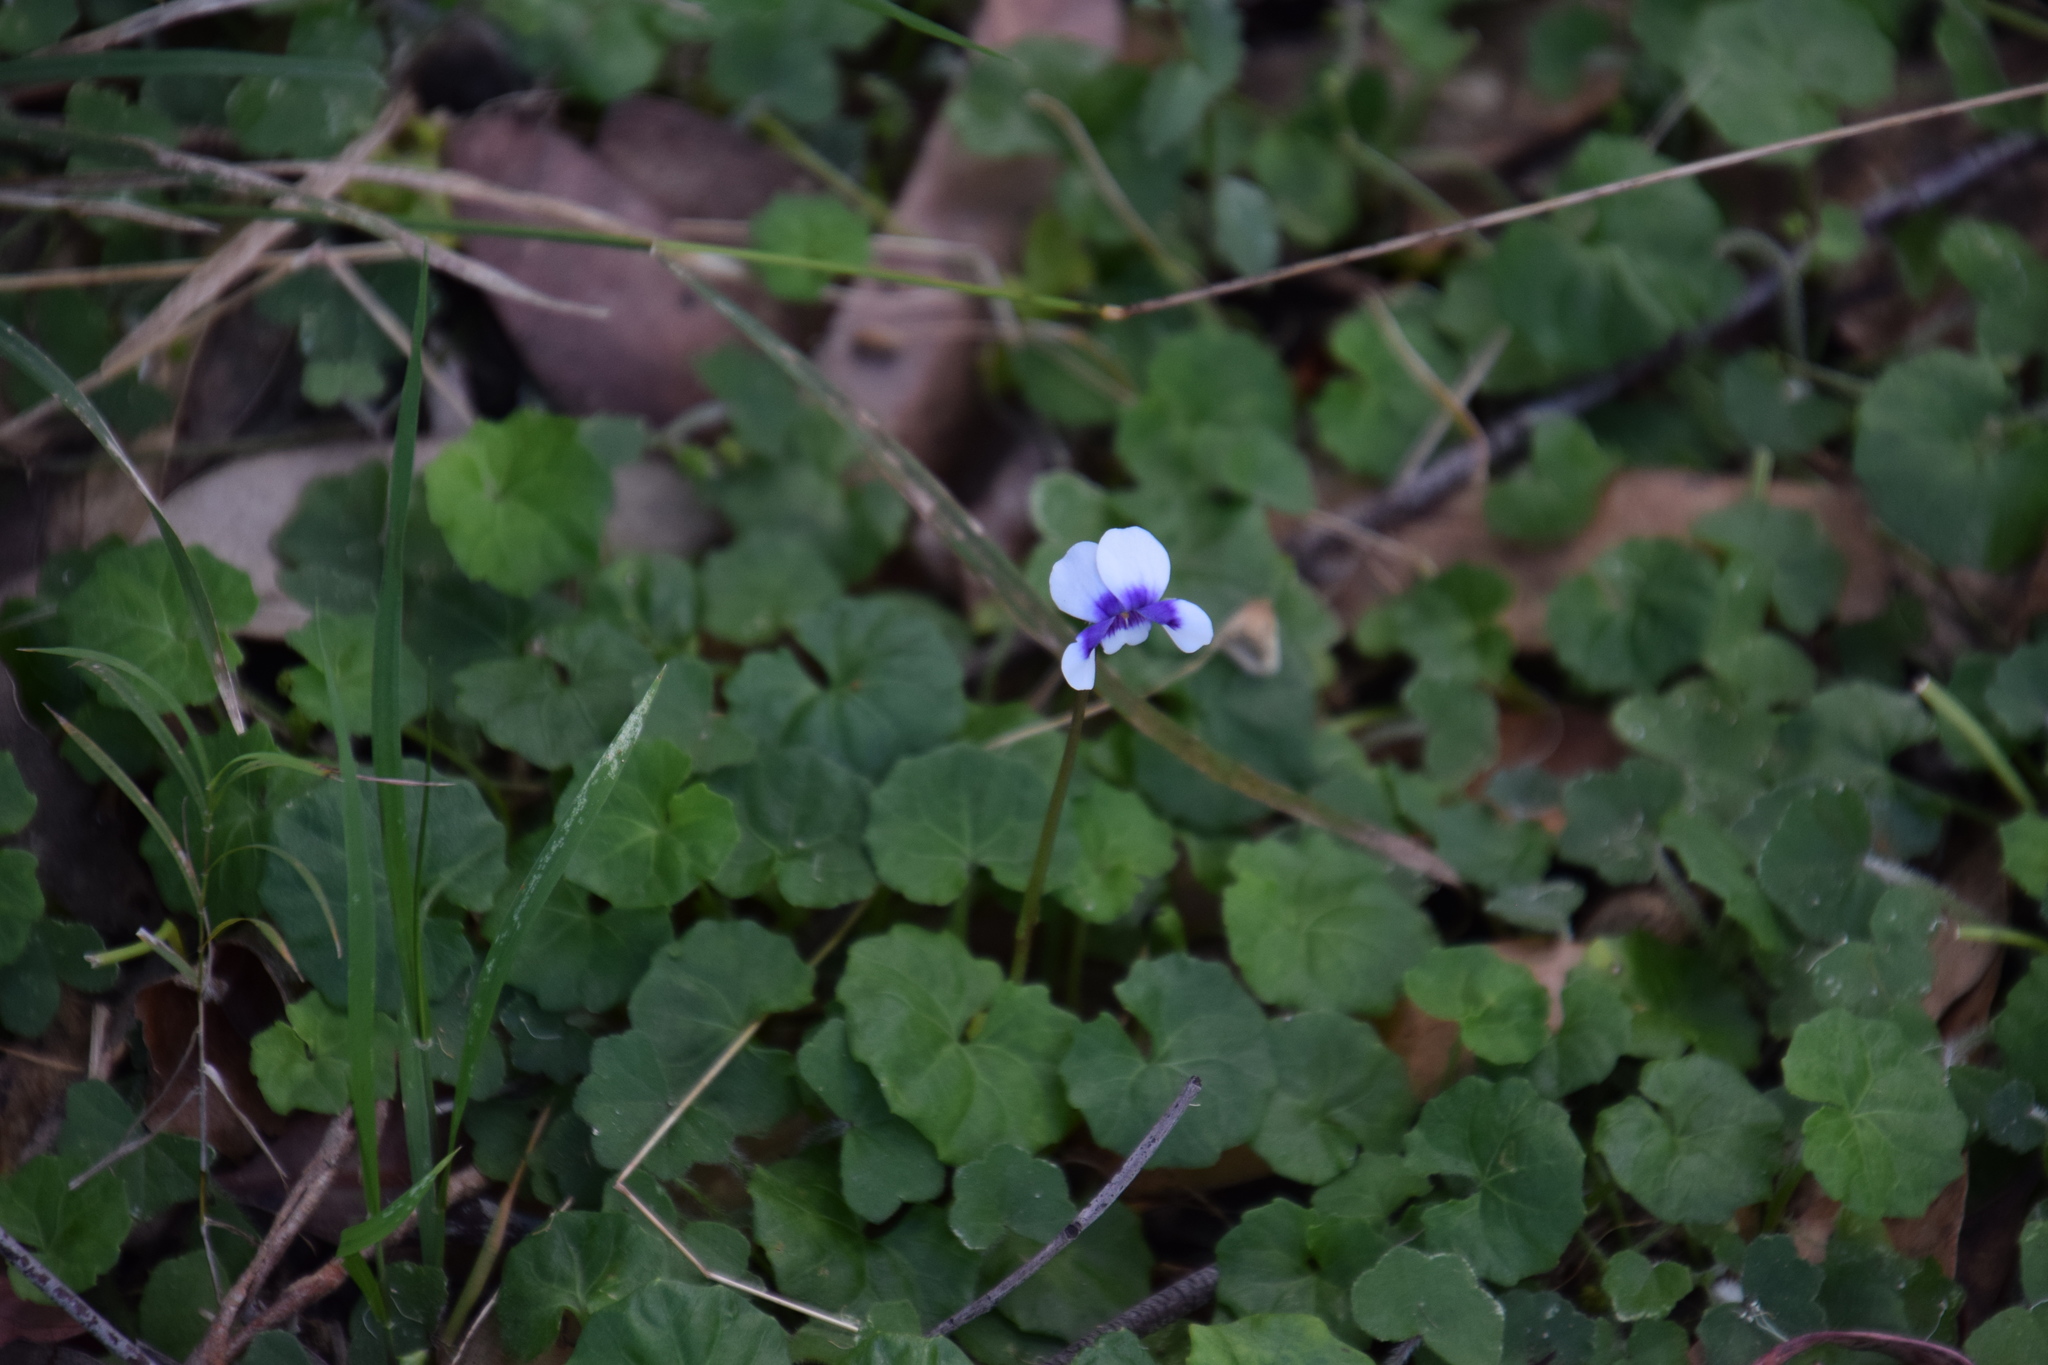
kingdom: Plantae
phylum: Tracheophyta
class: Magnoliopsida
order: Malpighiales
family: Violaceae
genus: Viola
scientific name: Viola banksii
